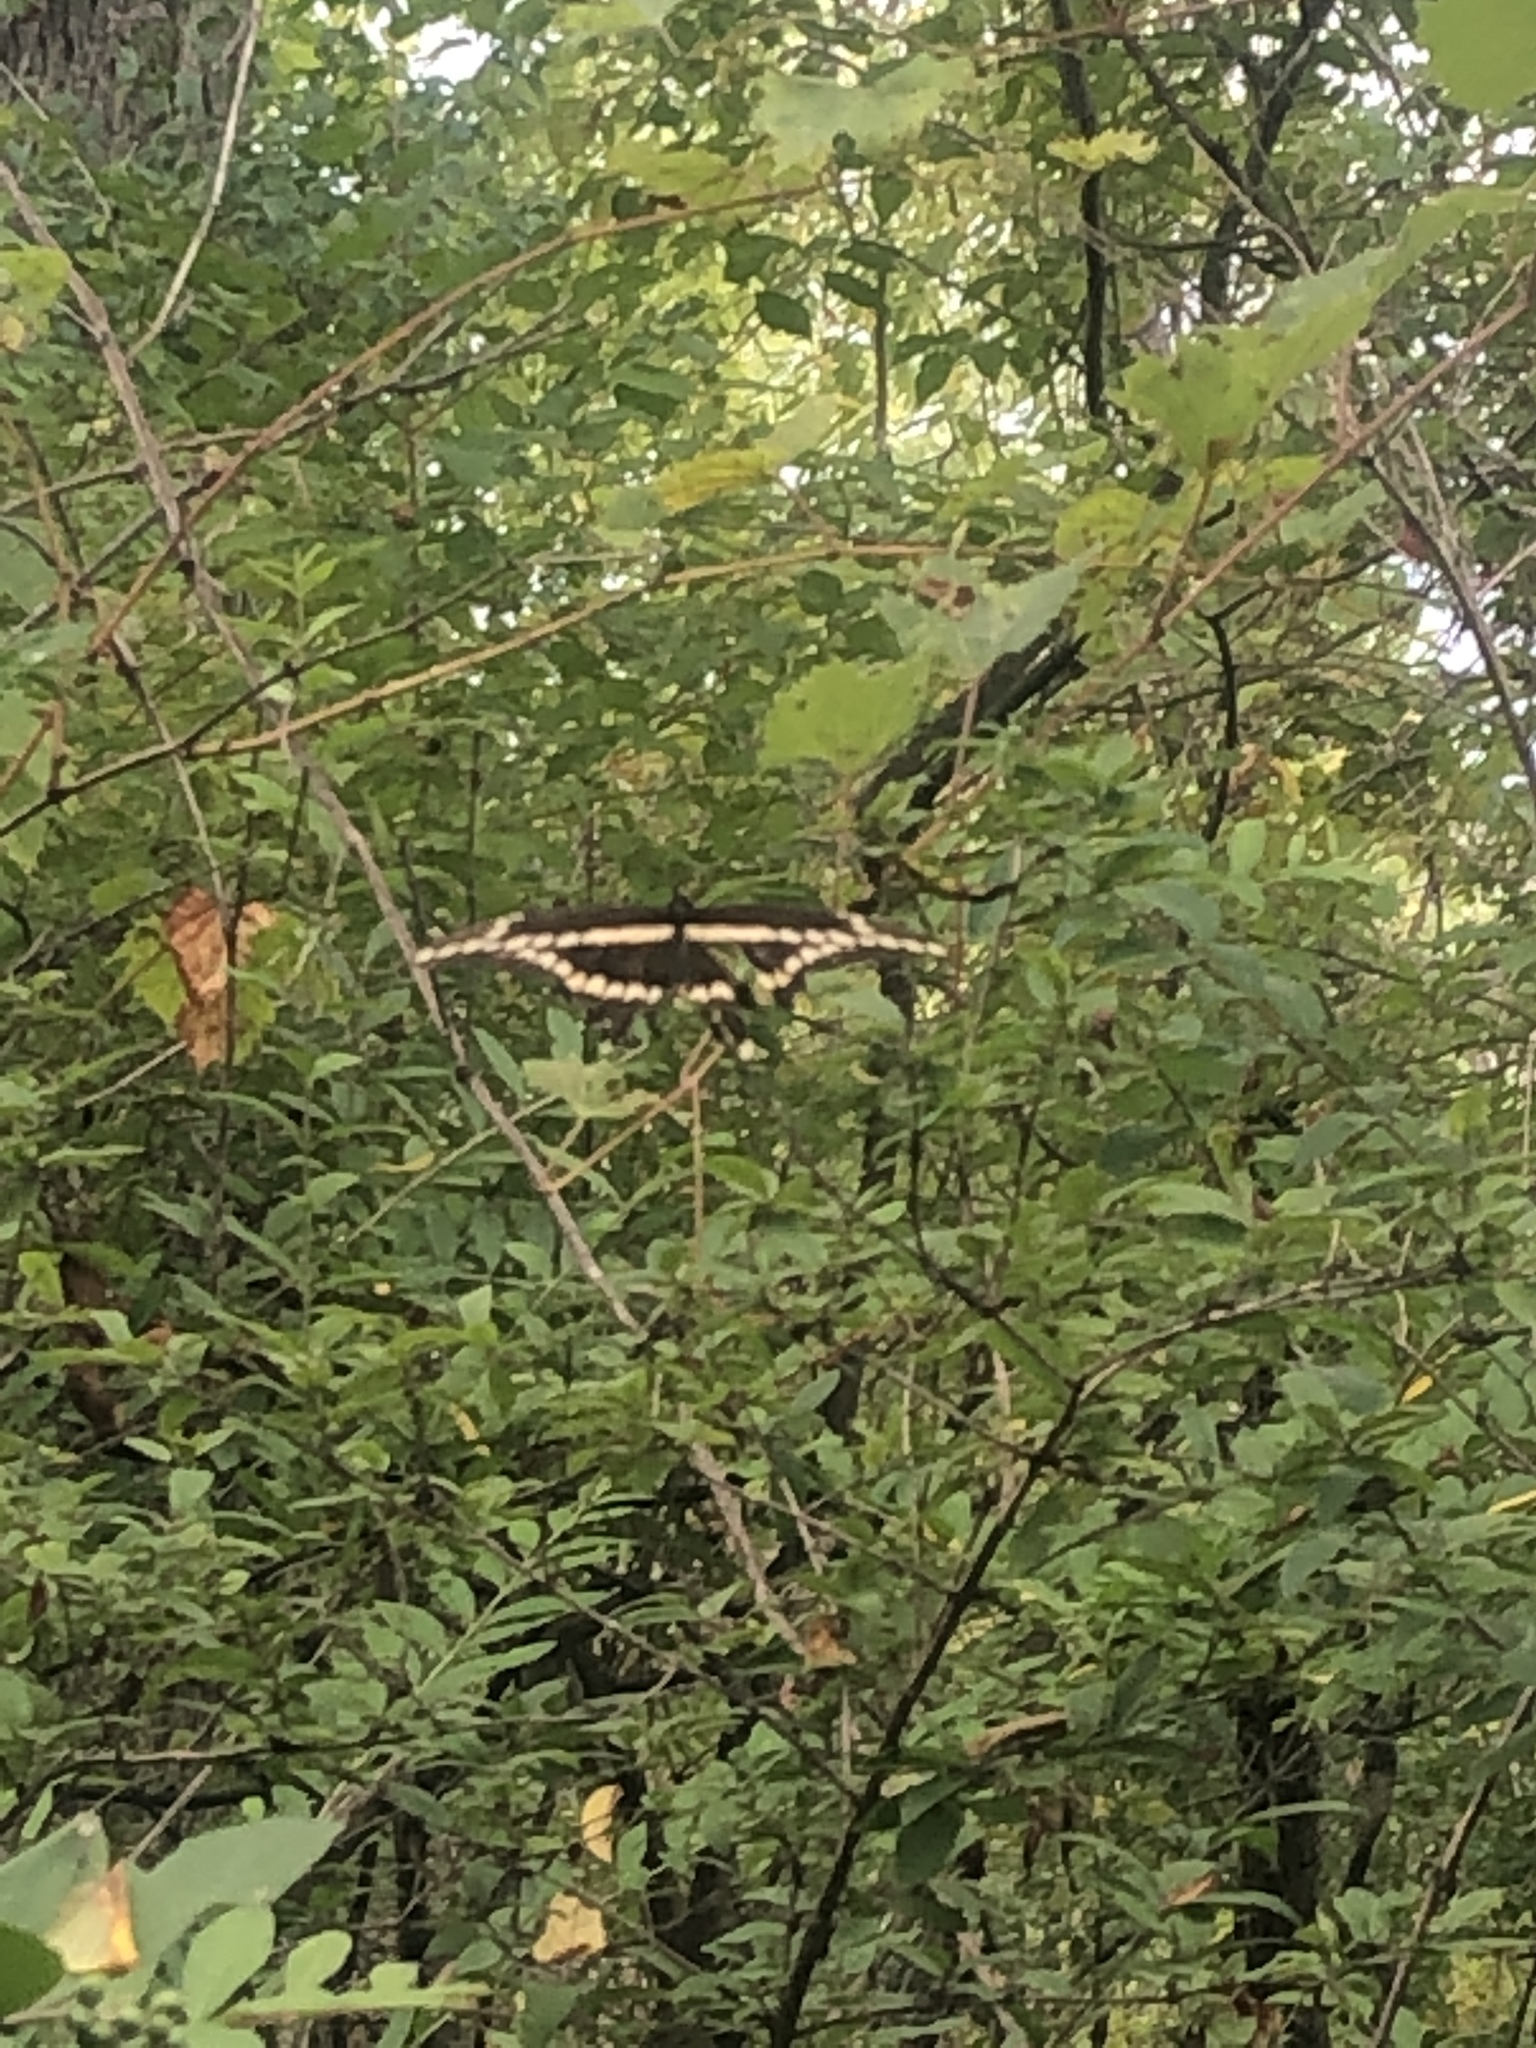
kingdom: Animalia
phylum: Arthropoda
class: Insecta
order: Lepidoptera
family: Papilionidae
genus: Papilio
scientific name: Papilio cresphontes
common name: Giant swallowtail
